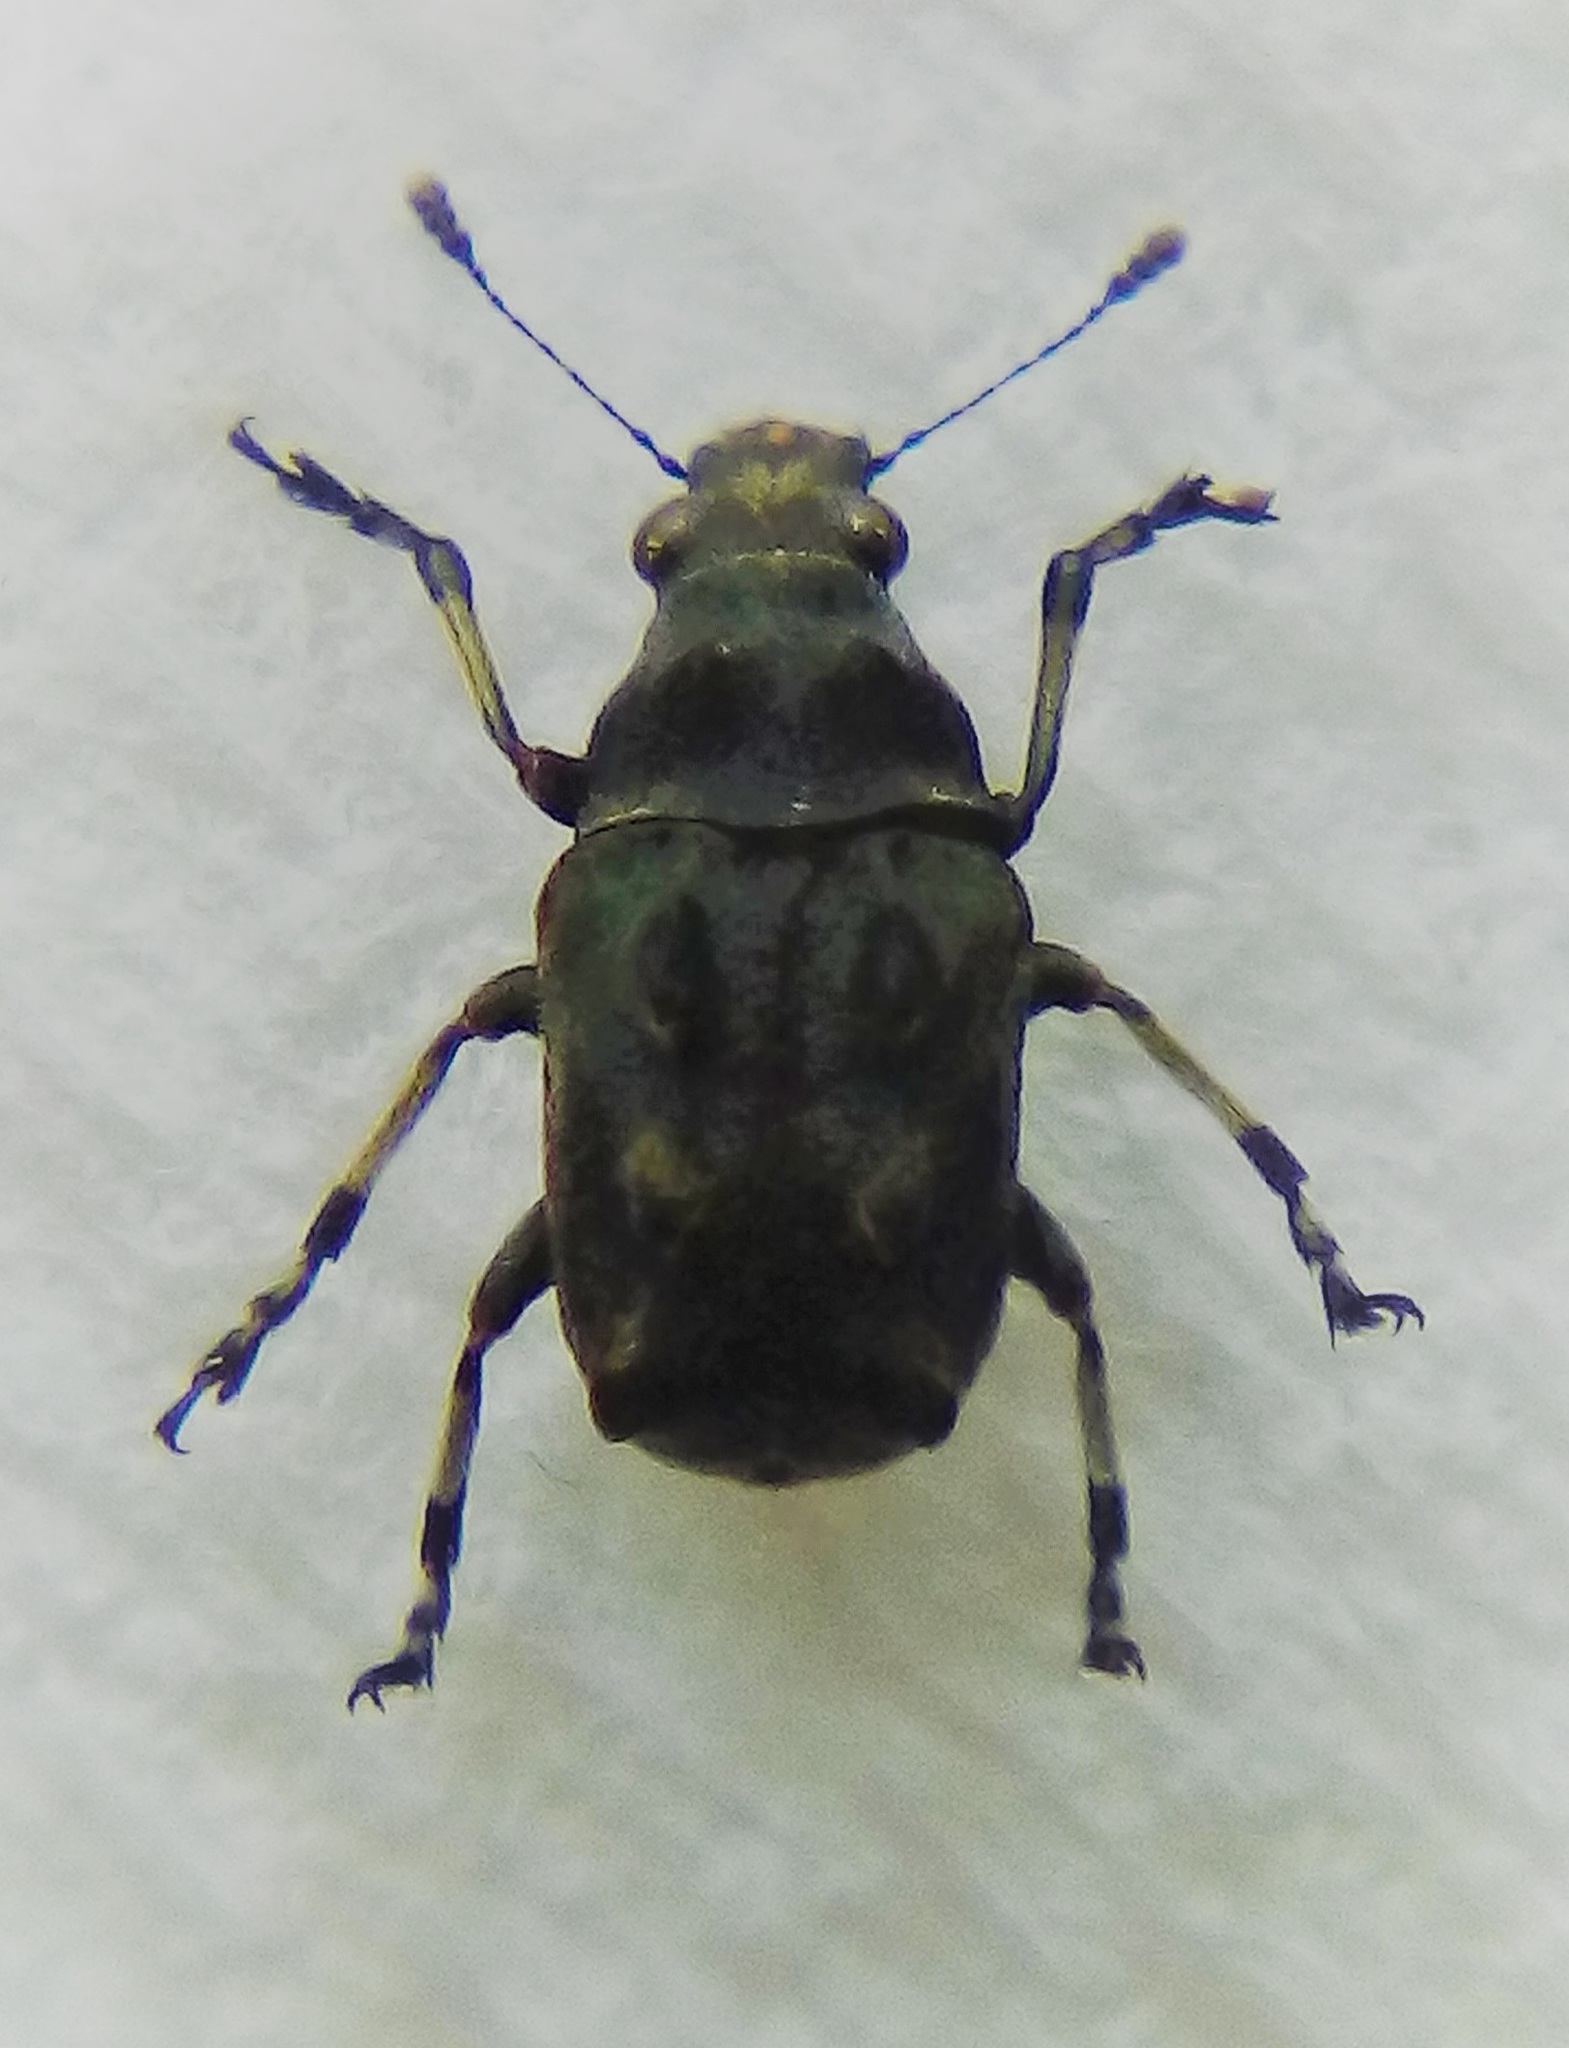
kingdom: Animalia
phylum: Arthropoda
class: Insecta
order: Coleoptera
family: Anthribidae
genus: Gynarchaeus
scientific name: Gynarchaeus
